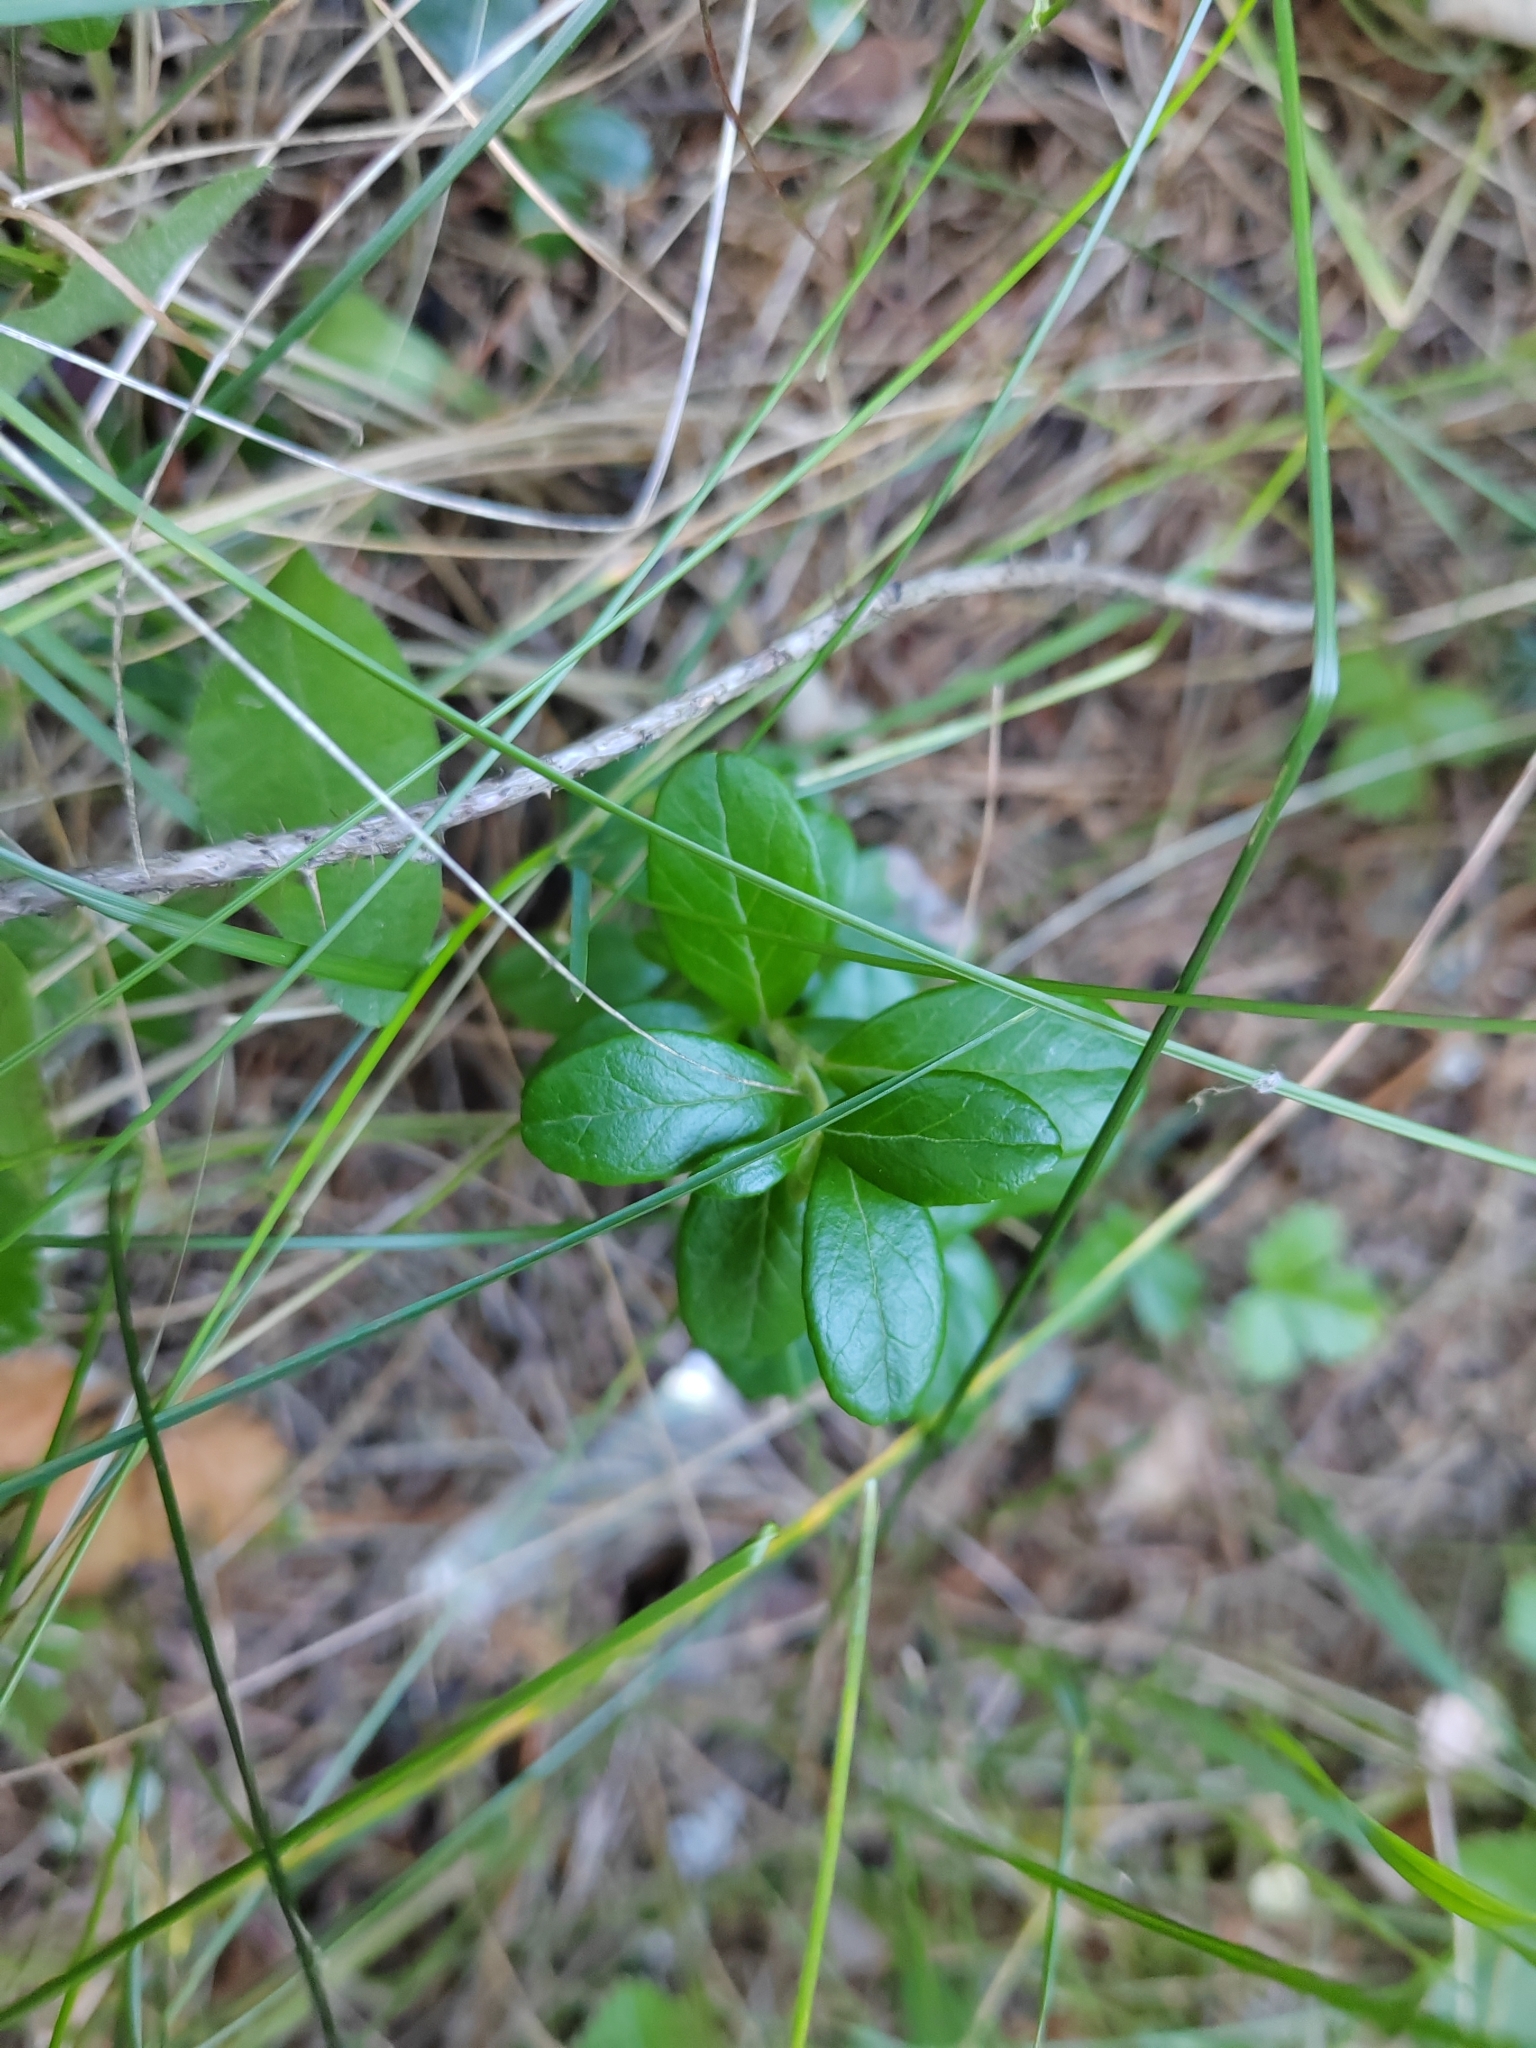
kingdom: Plantae
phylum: Tracheophyta
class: Magnoliopsida
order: Ericales
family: Ericaceae
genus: Vaccinium
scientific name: Vaccinium vitis-idaea
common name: Cowberry
